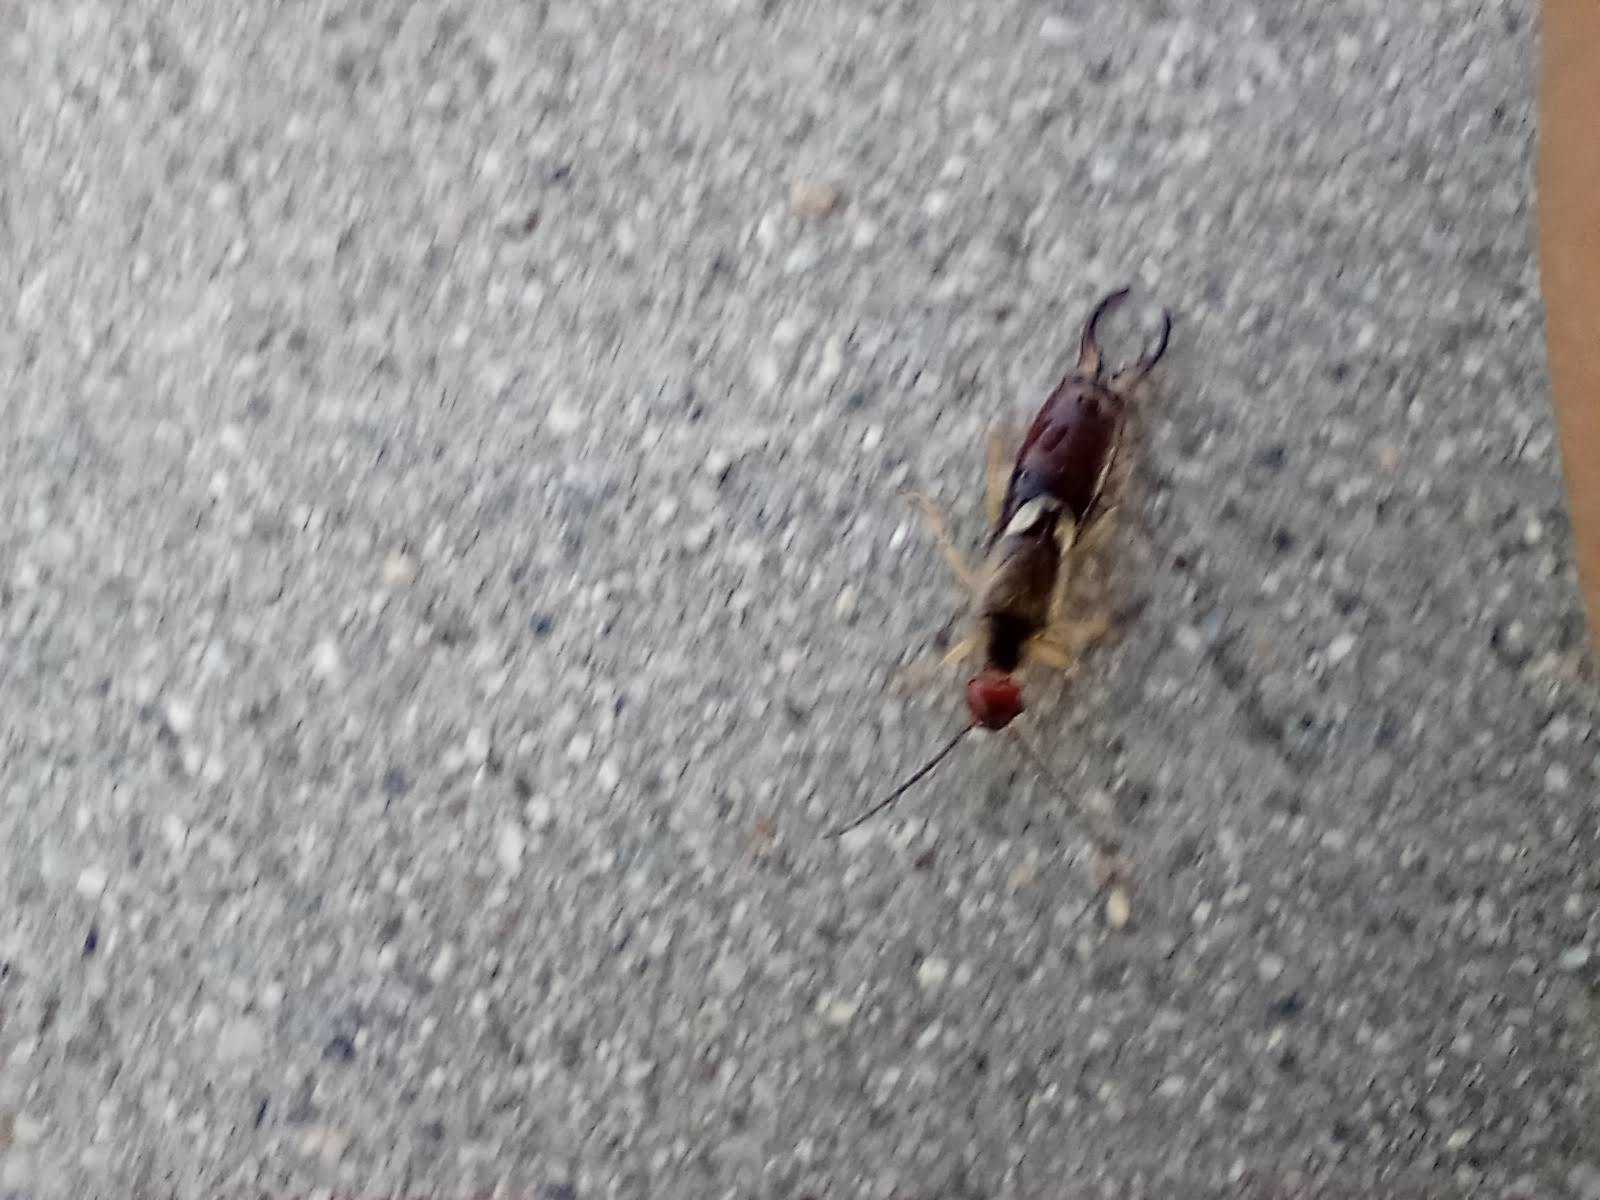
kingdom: Animalia
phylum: Arthropoda
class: Insecta
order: Dermaptera
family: Forficulidae
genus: Forficula
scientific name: Forficula
